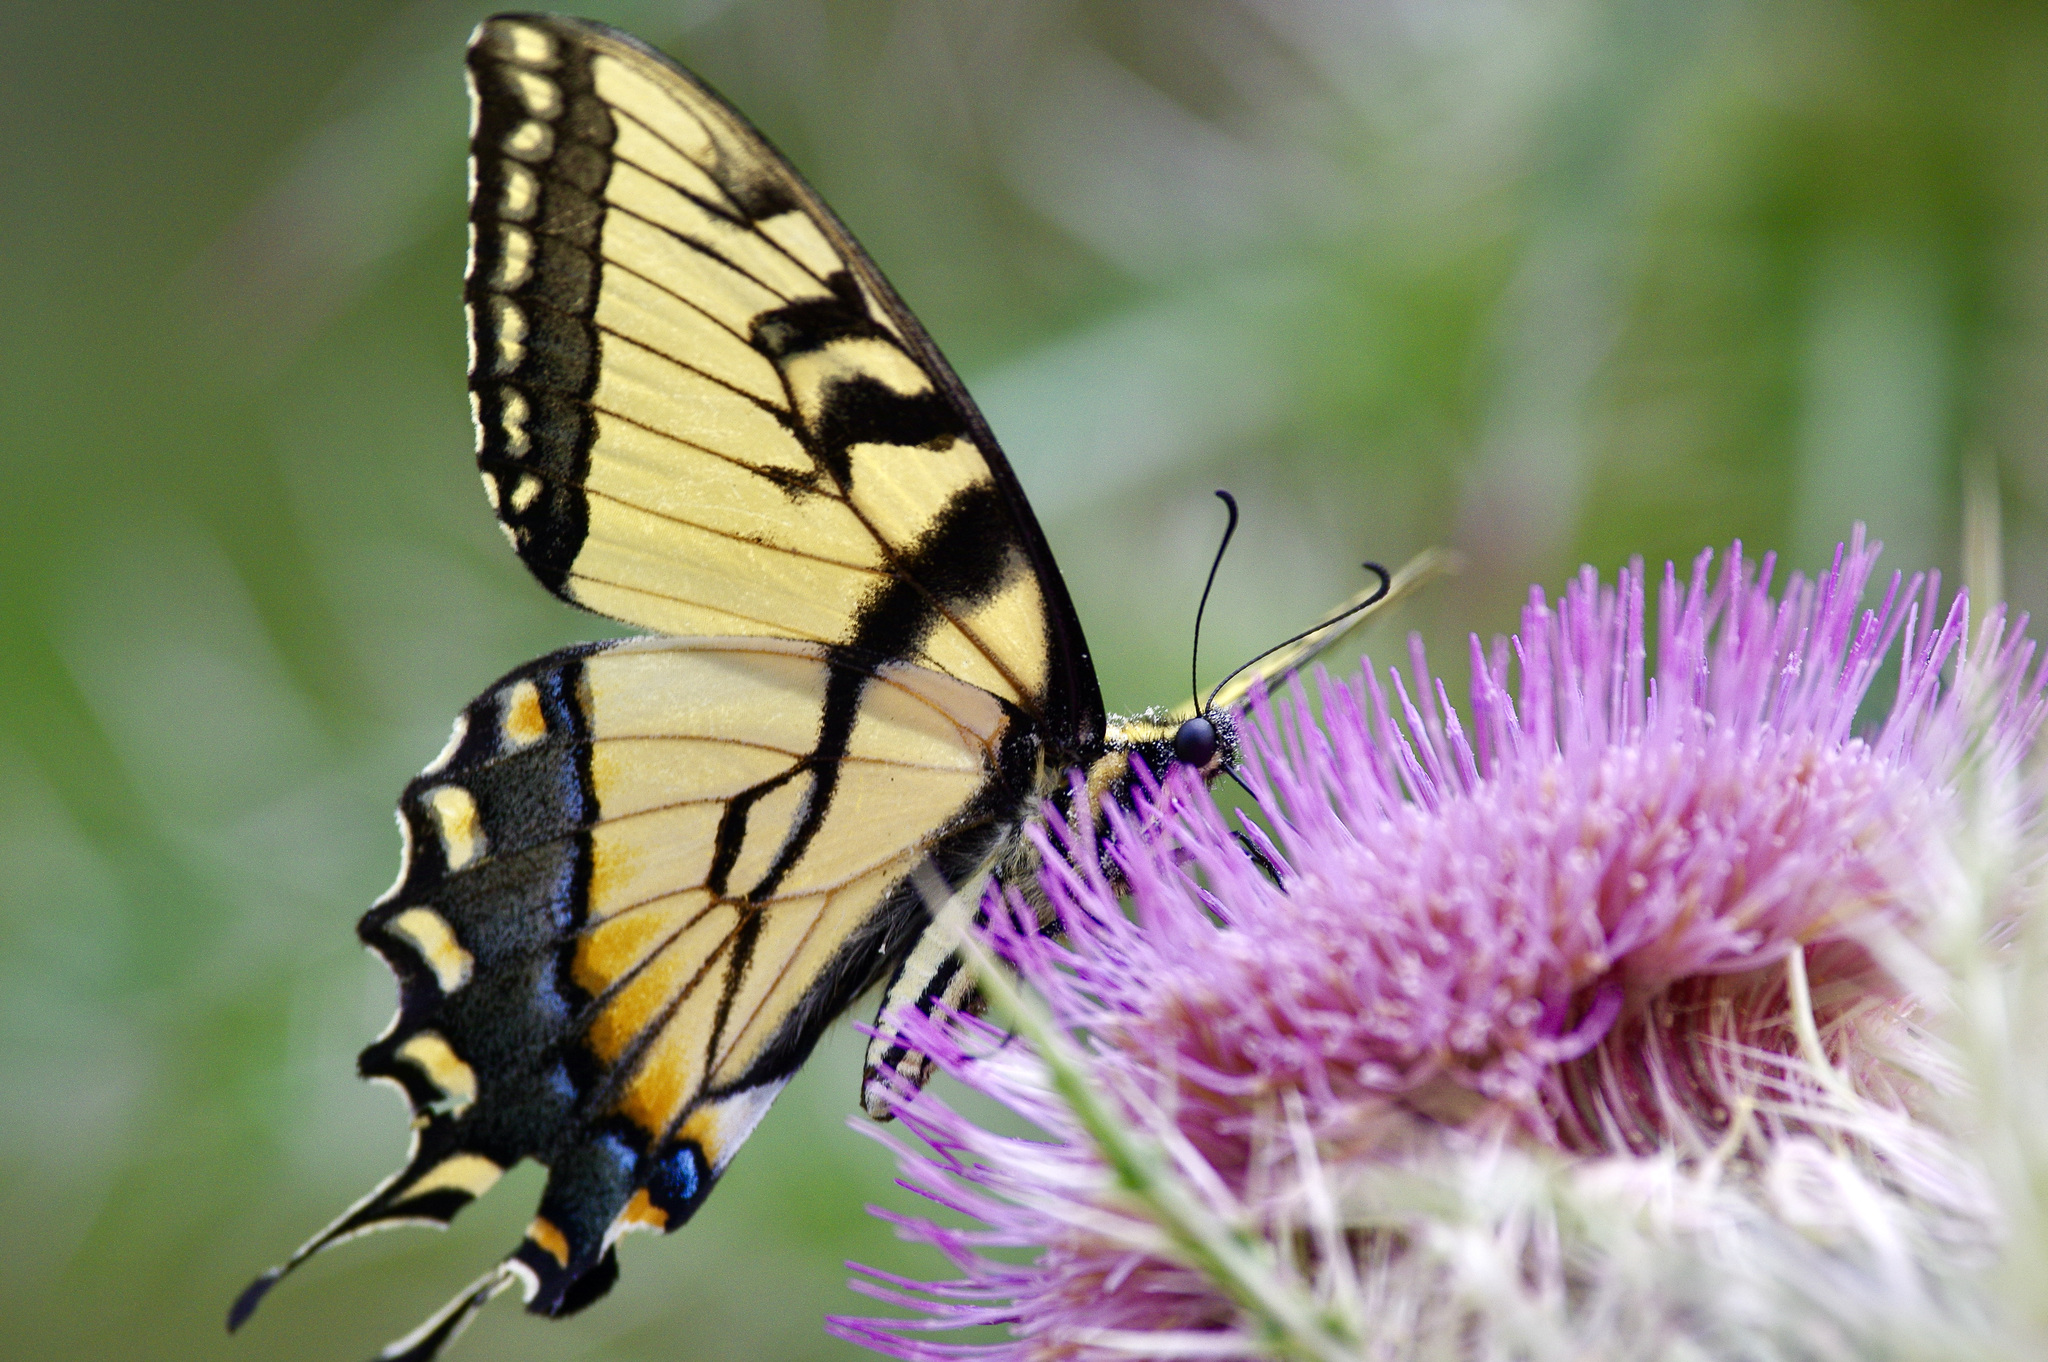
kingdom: Animalia
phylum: Arthropoda
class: Insecta
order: Lepidoptera
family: Papilionidae
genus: Papilio
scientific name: Papilio glaucus
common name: Tiger swallowtail
